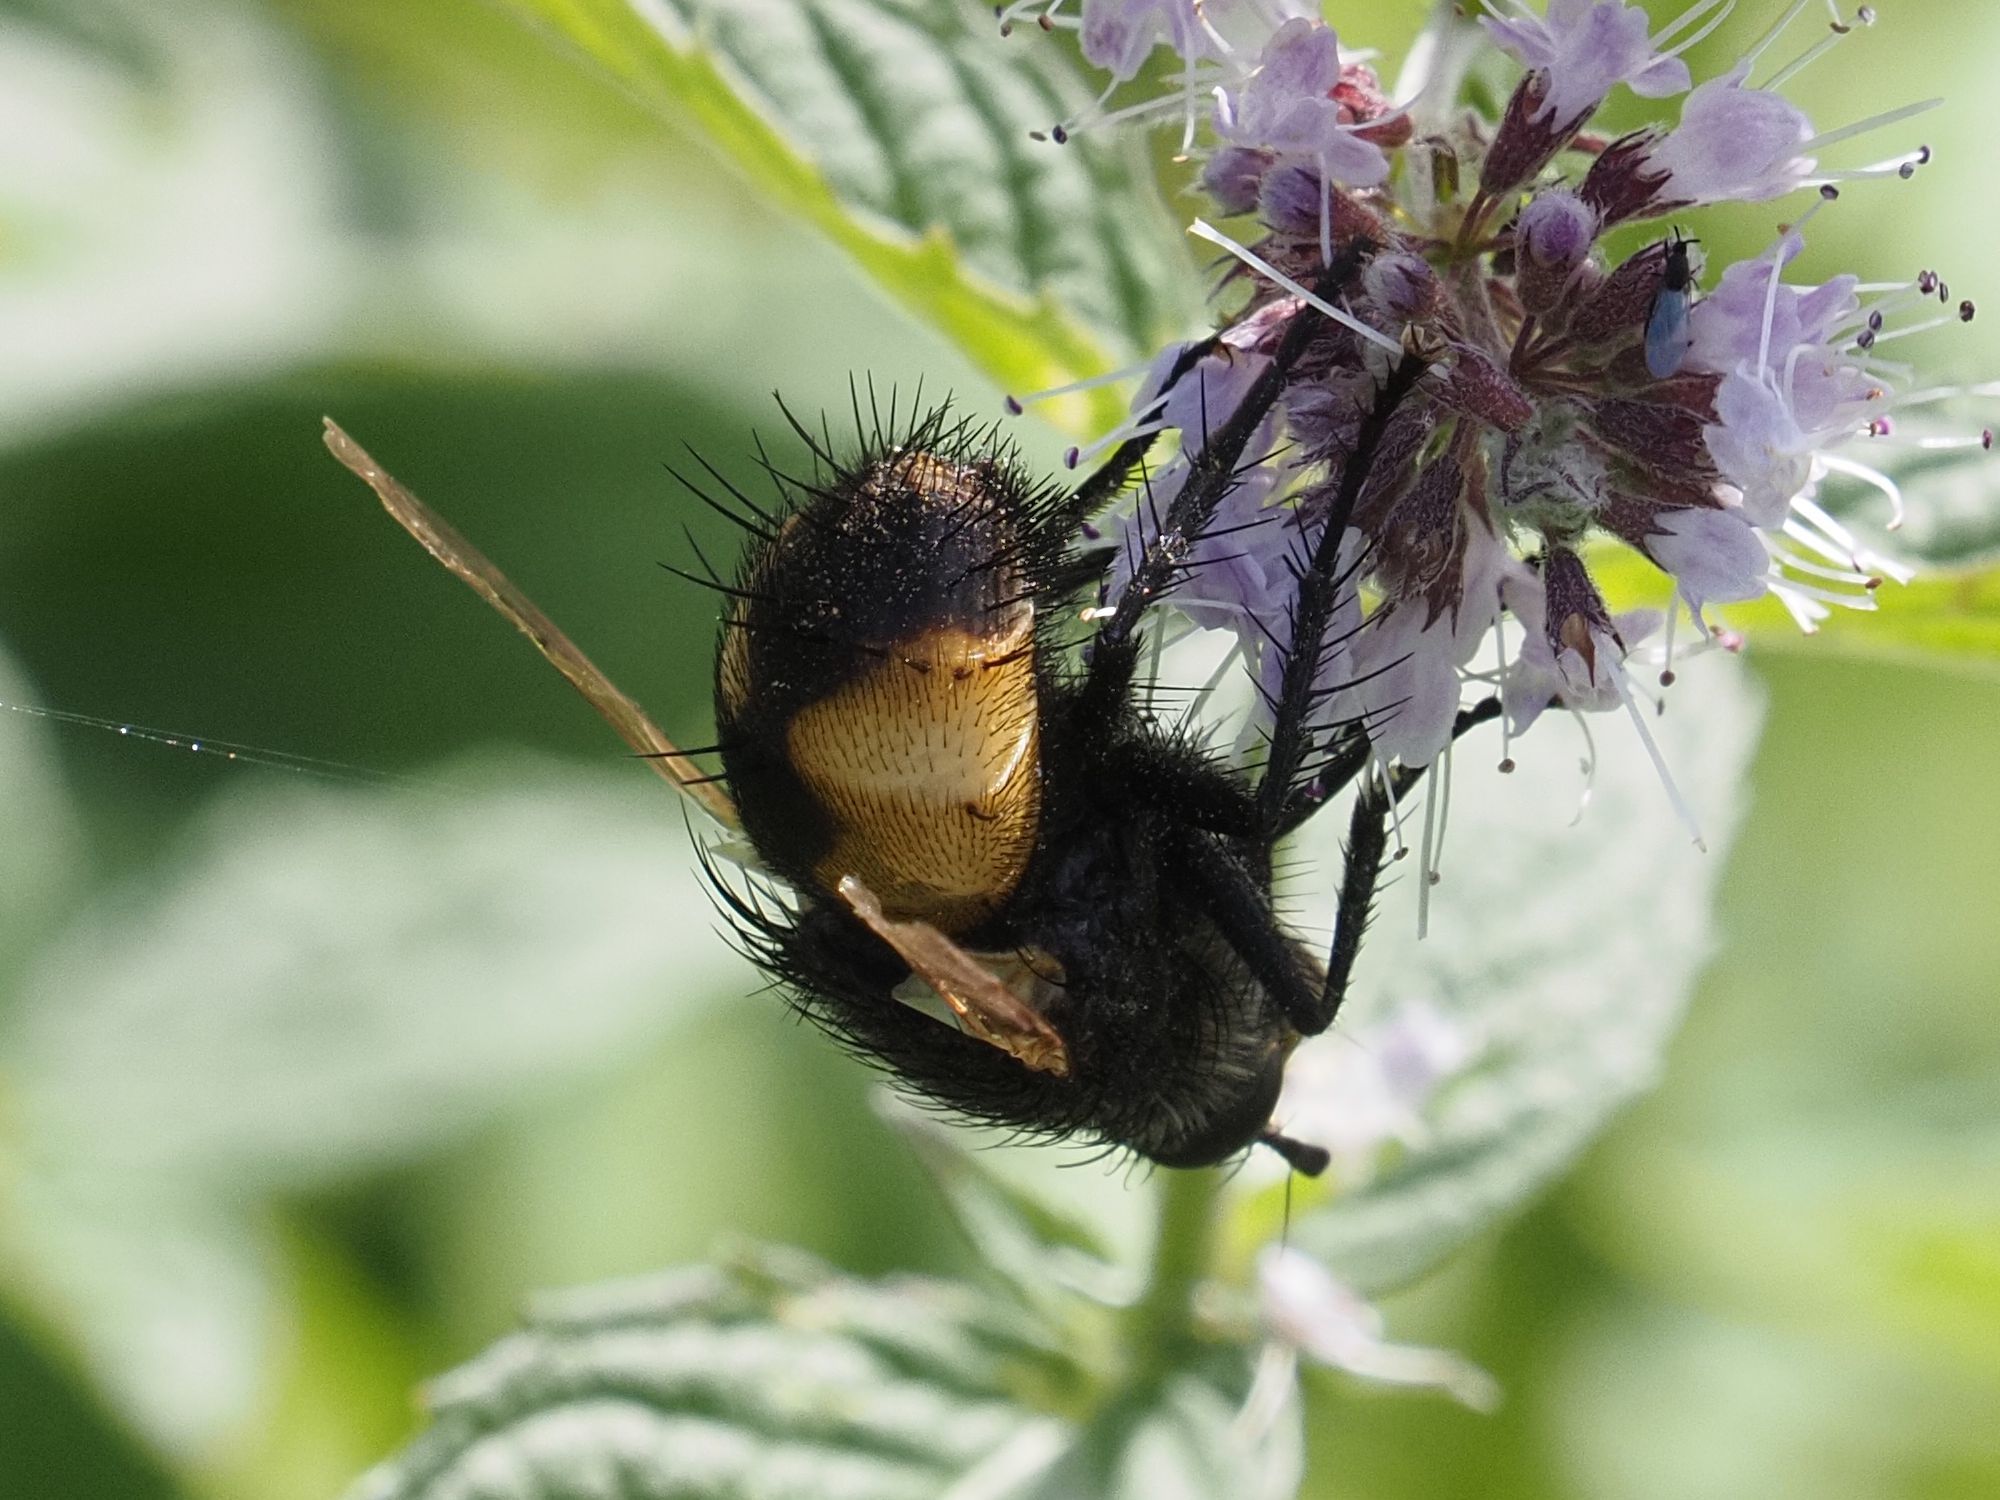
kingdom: Animalia
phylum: Arthropoda
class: Insecta
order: Diptera
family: Tachinidae
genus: Nowickia
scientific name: Nowickia ferox
